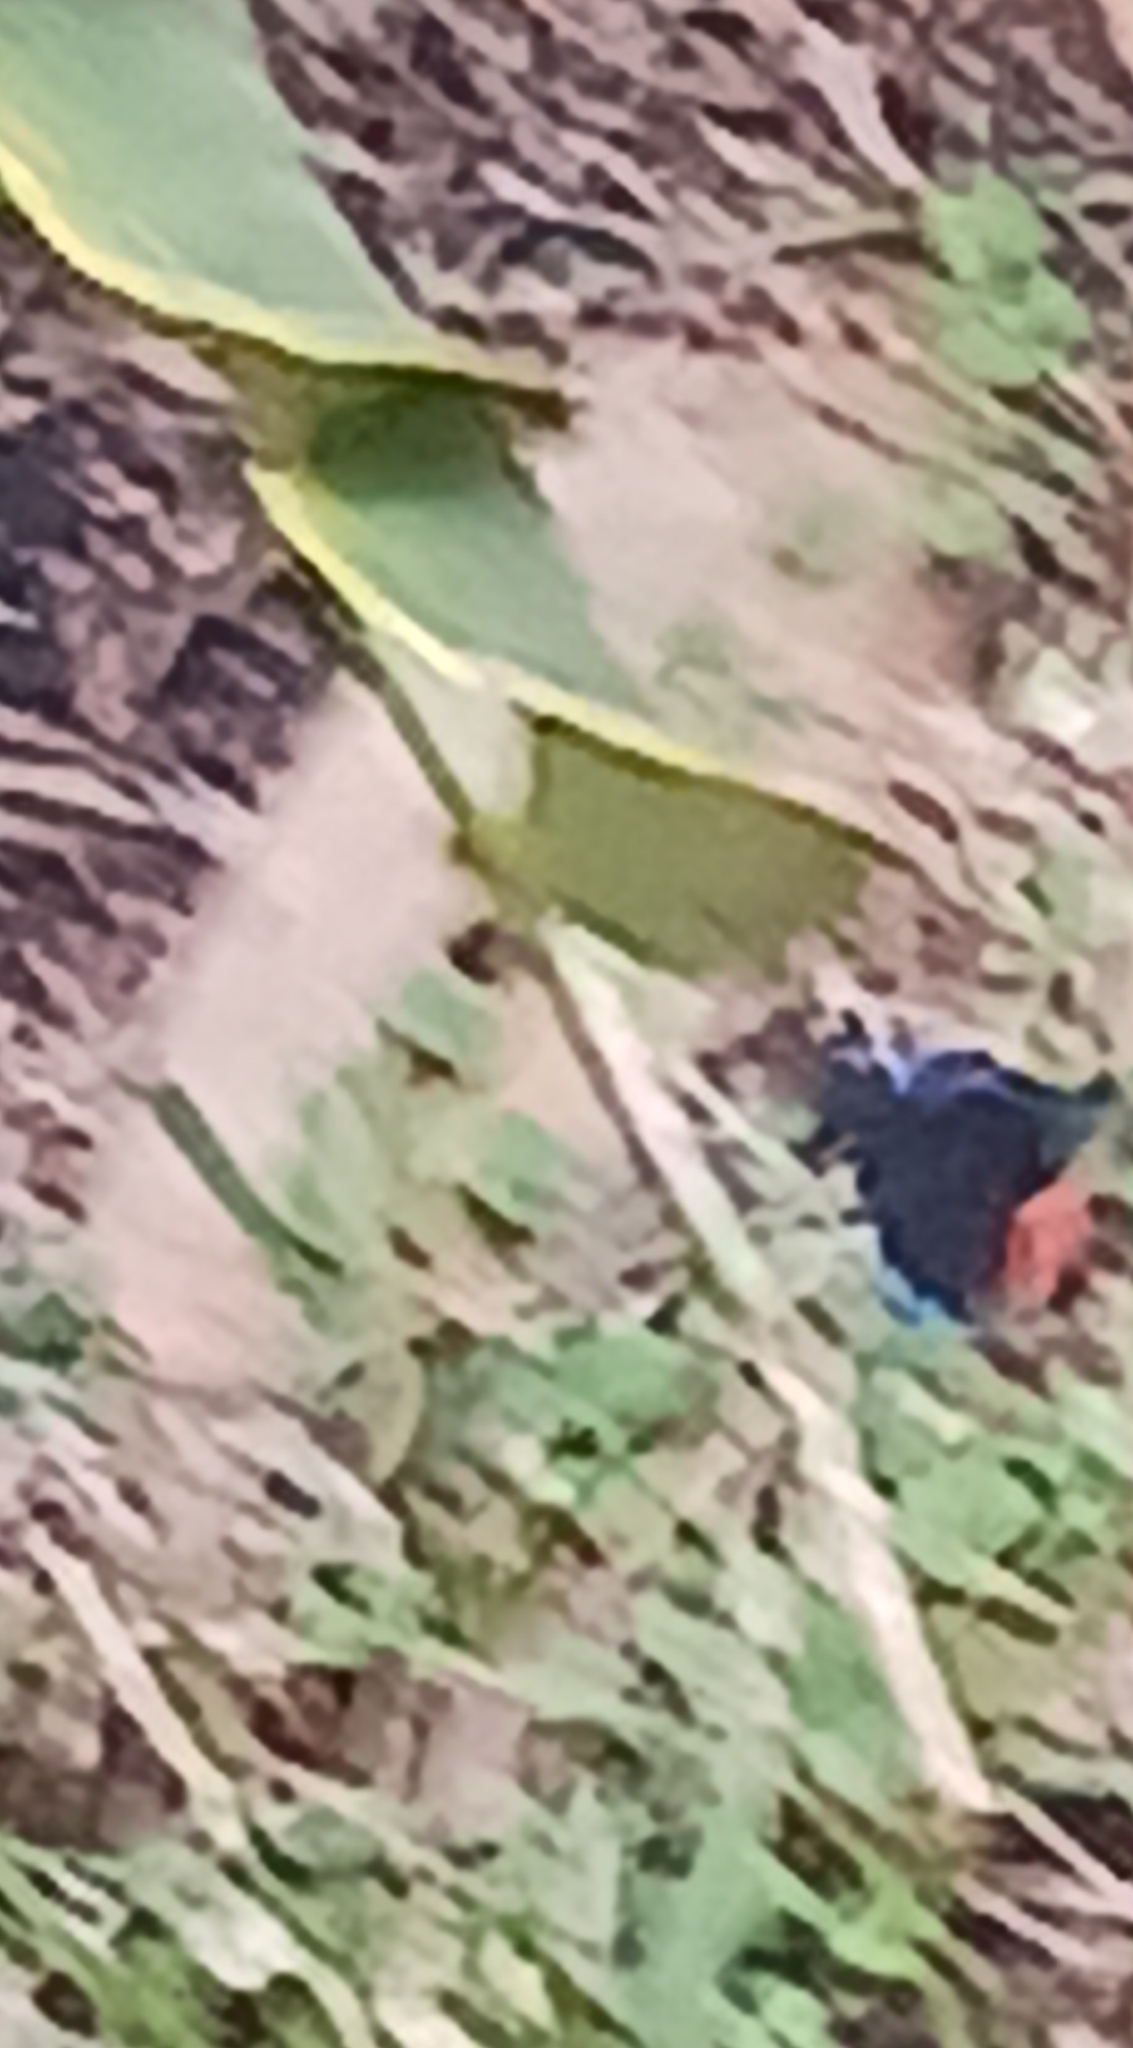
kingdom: Animalia
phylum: Arthropoda
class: Insecta
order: Lepidoptera
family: Lycaenidae
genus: Eumaeus
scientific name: Eumaeus atala
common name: Atala
